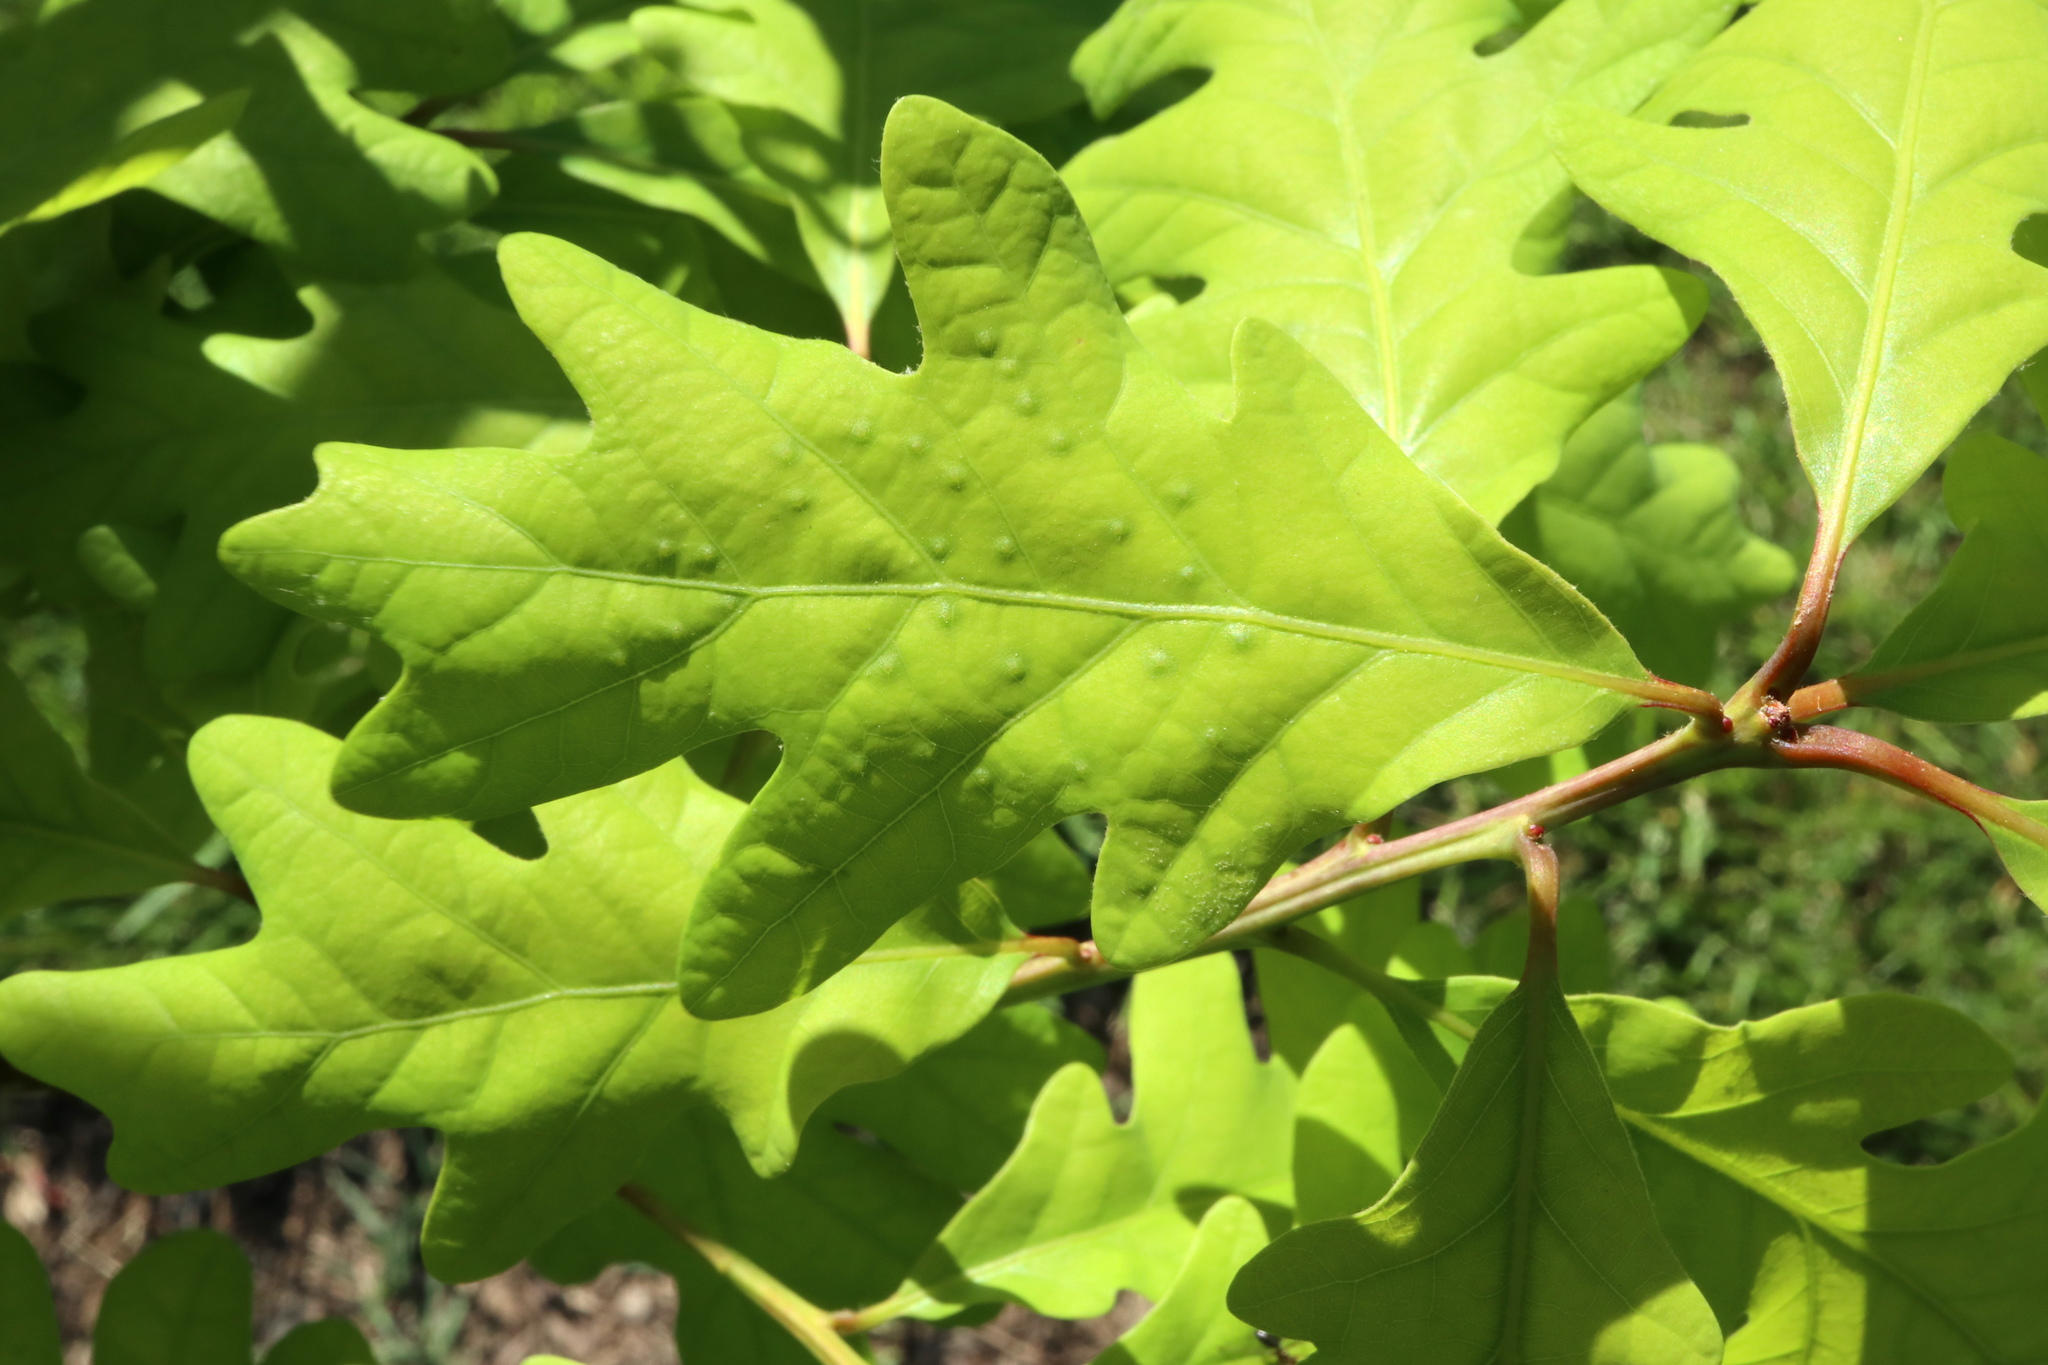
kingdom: Animalia
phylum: Arthropoda
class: Insecta
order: Hymenoptera
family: Cynipidae
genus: Neuroterus
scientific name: Neuroterus
